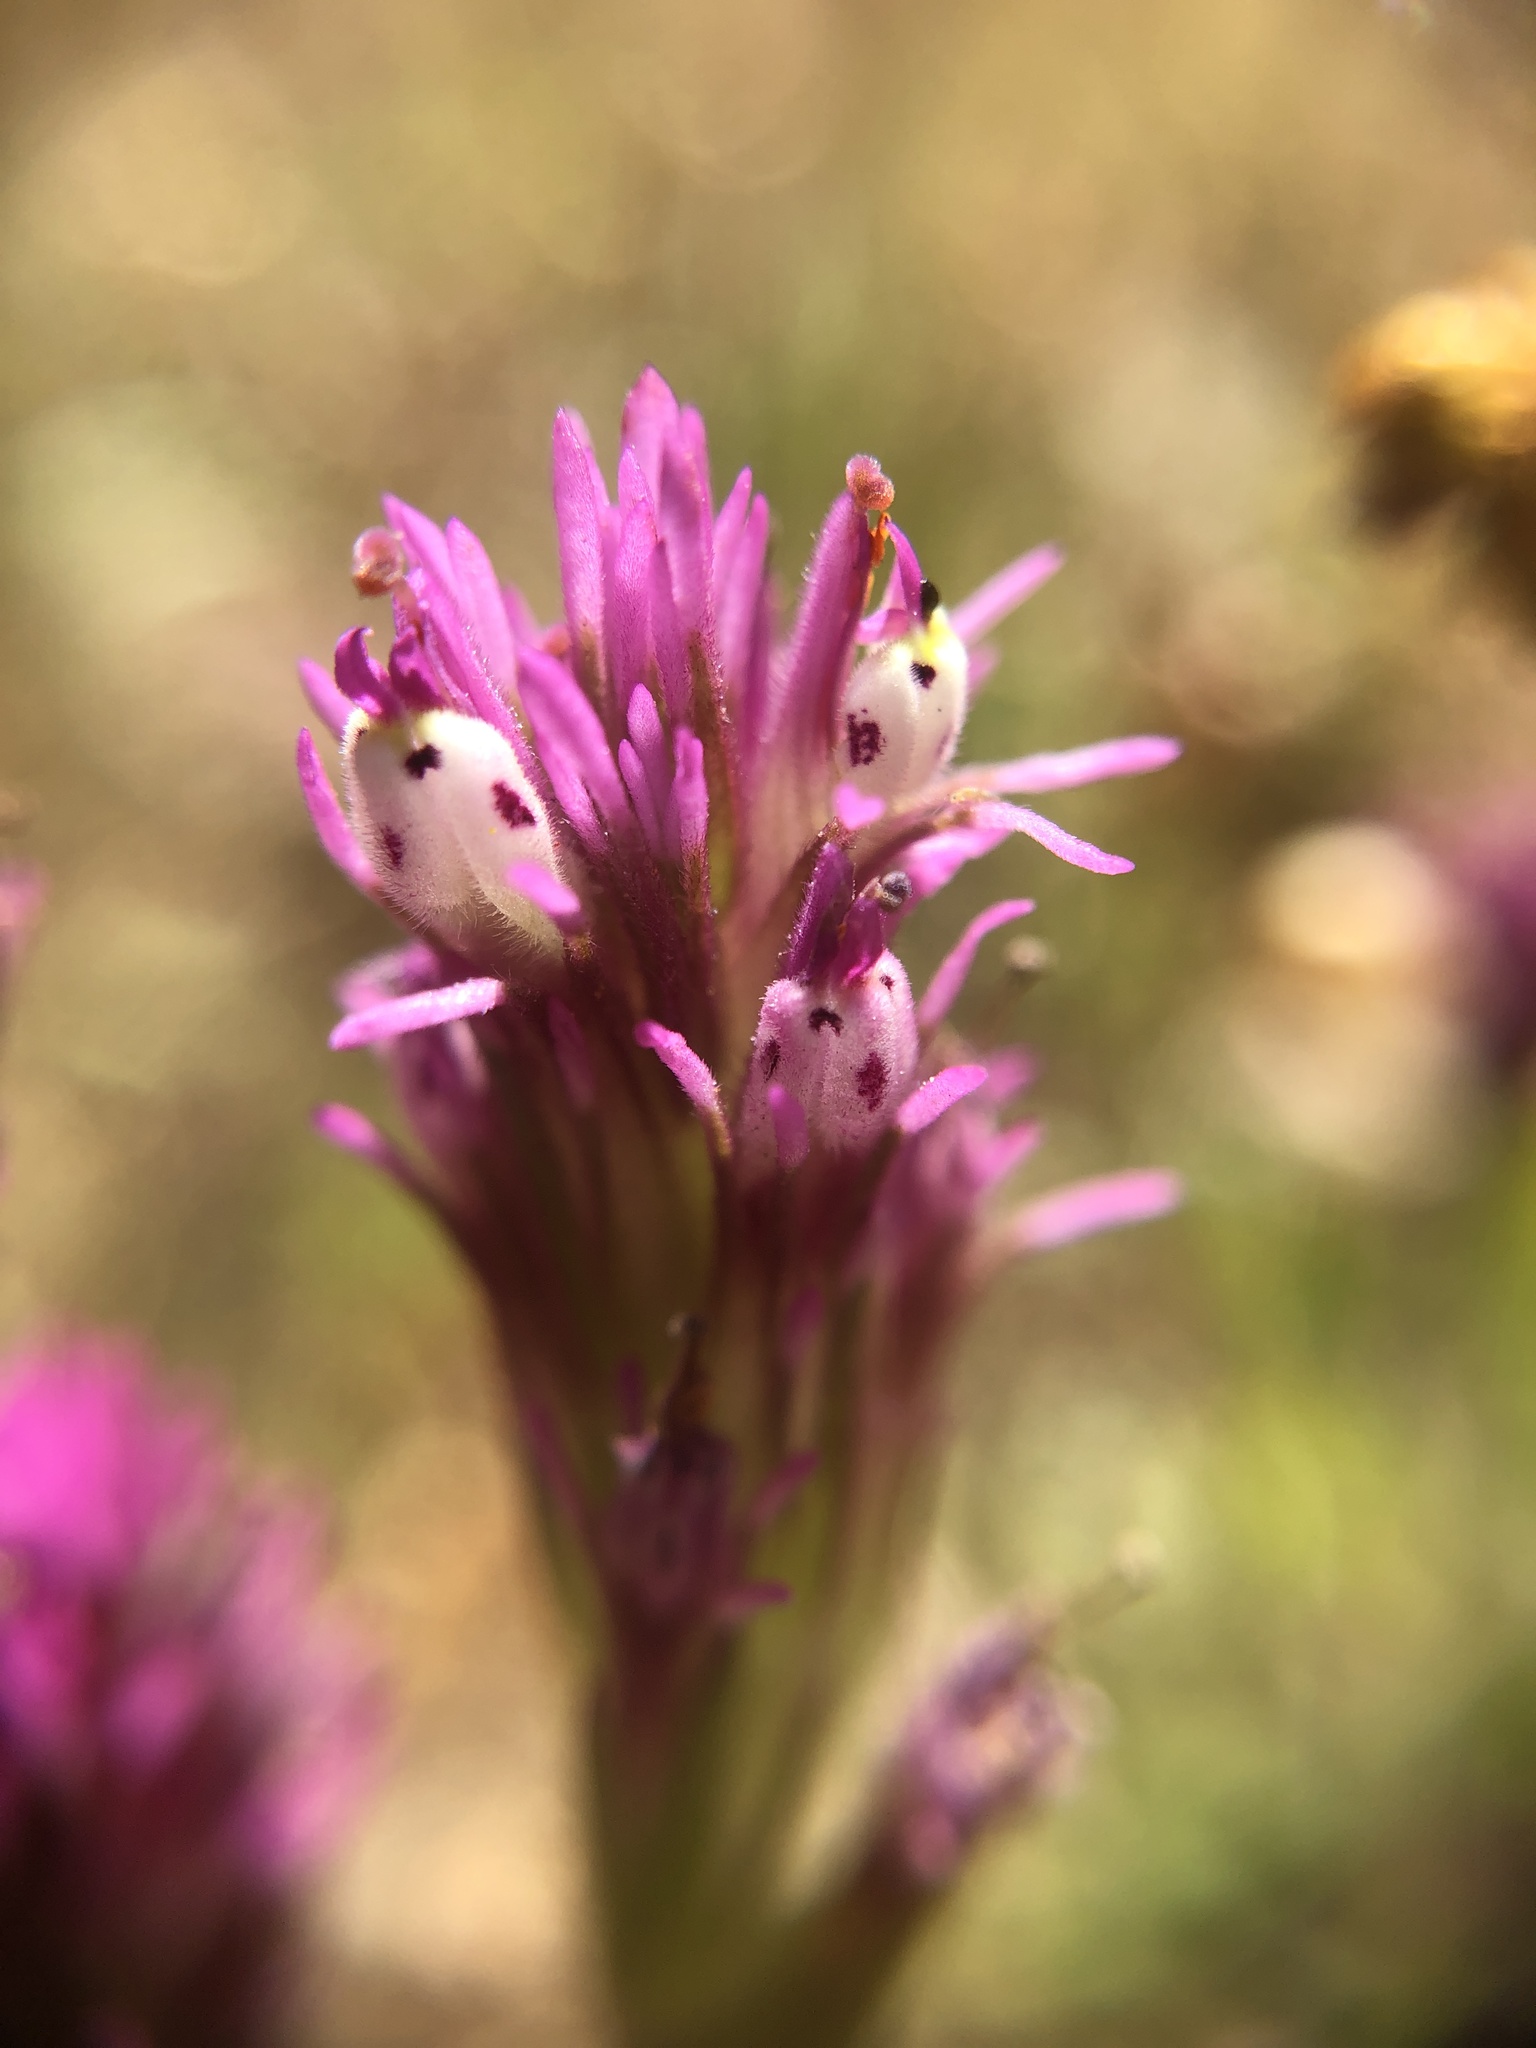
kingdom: Plantae
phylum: Tracheophyta
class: Magnoliopsida
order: Lamiales
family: Orobanchaceae
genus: Castilleja
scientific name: Castilleja densiflora
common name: Dense-flower indian paintbrush
